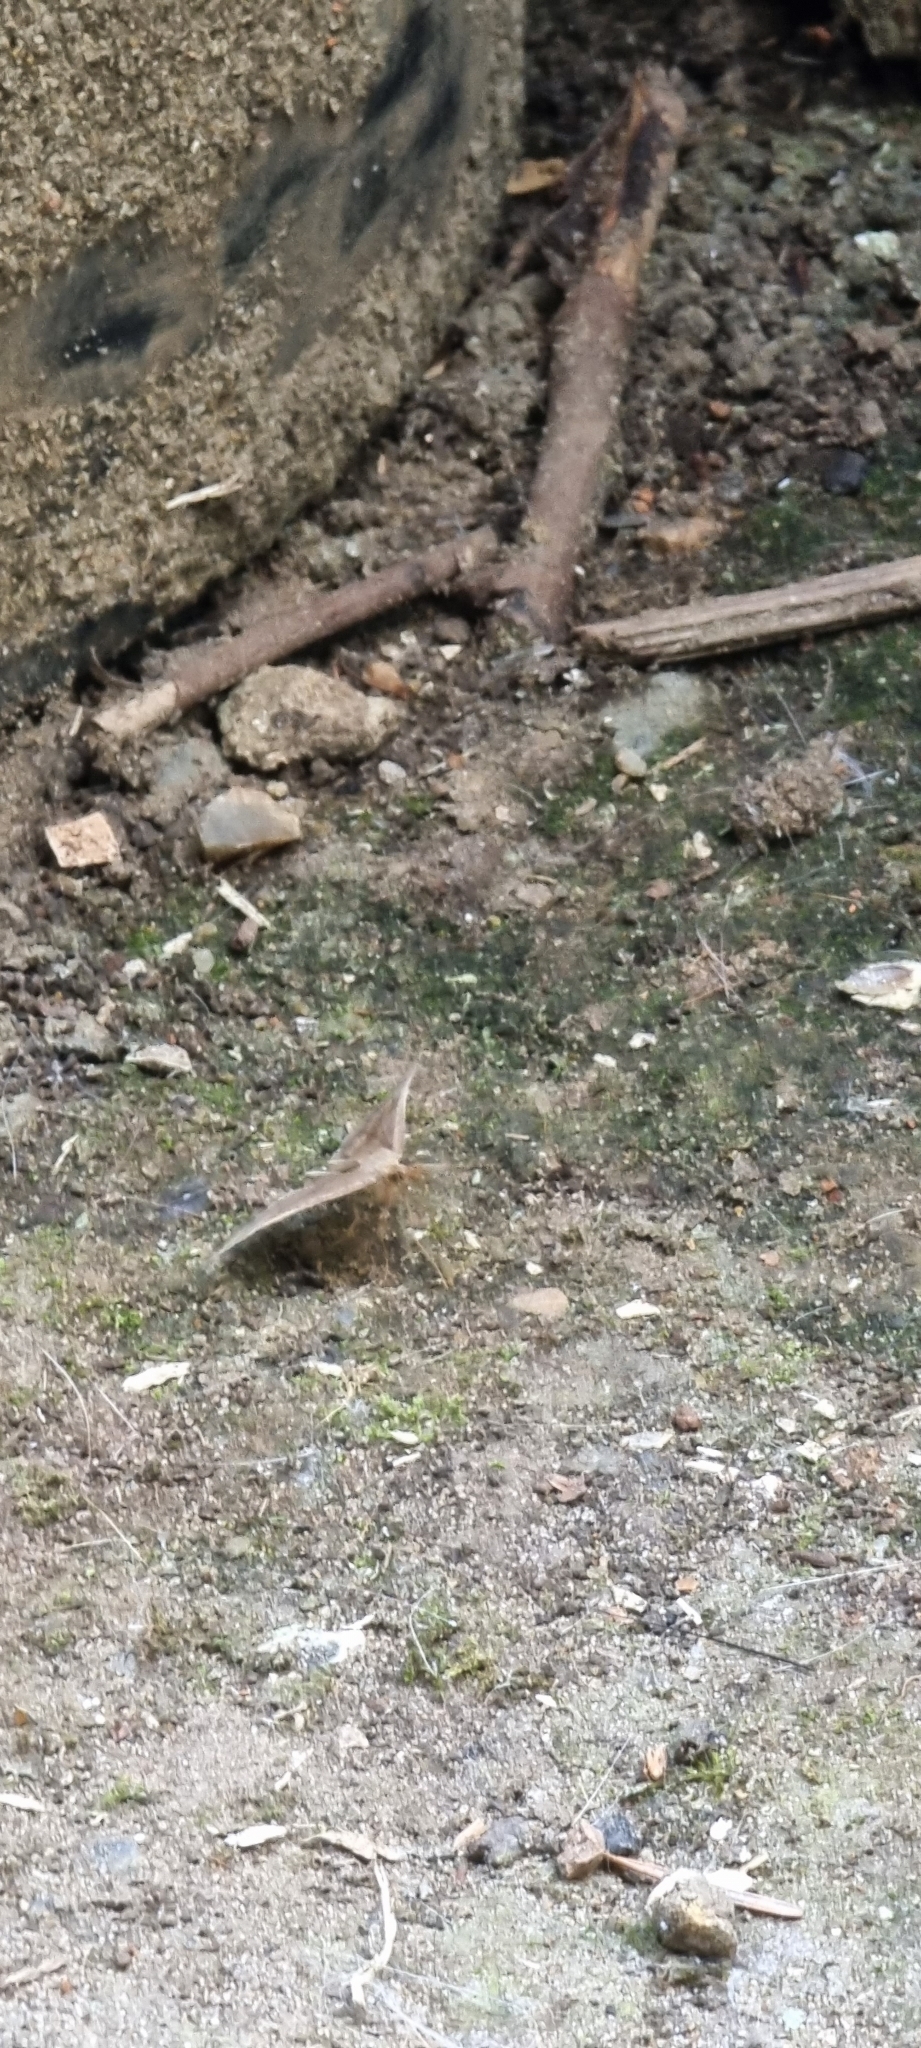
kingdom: Animalia
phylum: Arthropoda
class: Insecta
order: Lepidoptera
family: Erebidae
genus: Hypena
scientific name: Hypena proboscidalis
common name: Snout
